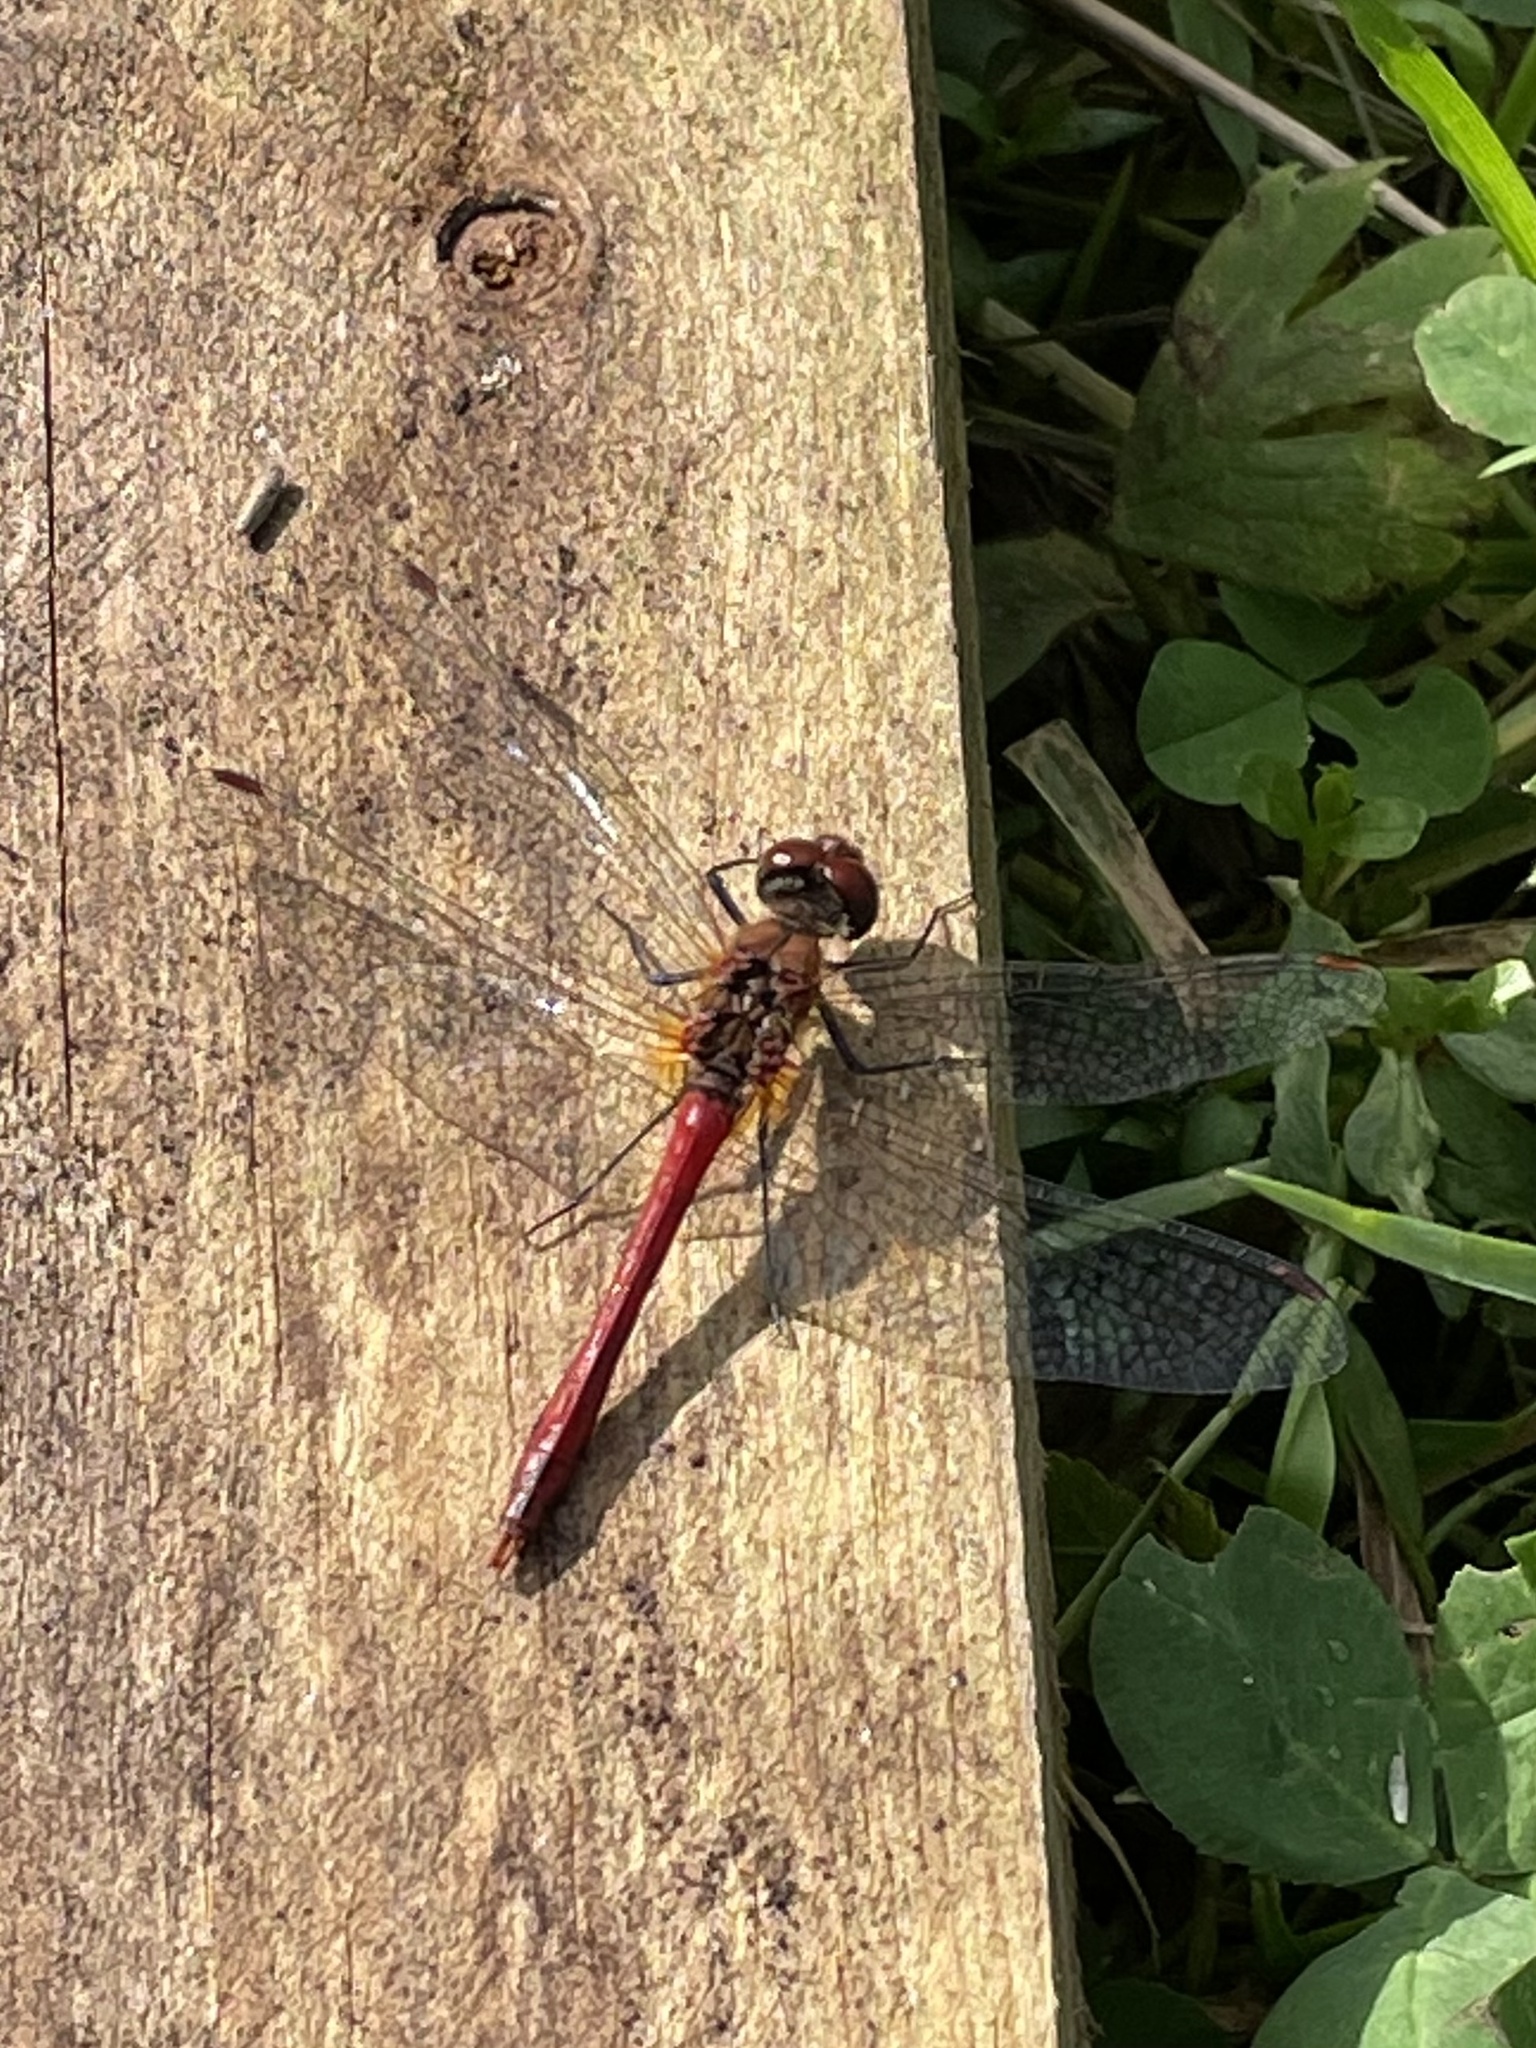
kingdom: Animalia
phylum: Arthropoda
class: Insecta
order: Odonata
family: Libellulidae
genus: Sympetrum
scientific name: Sympetrum sanguineum
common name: Ruddy darter
